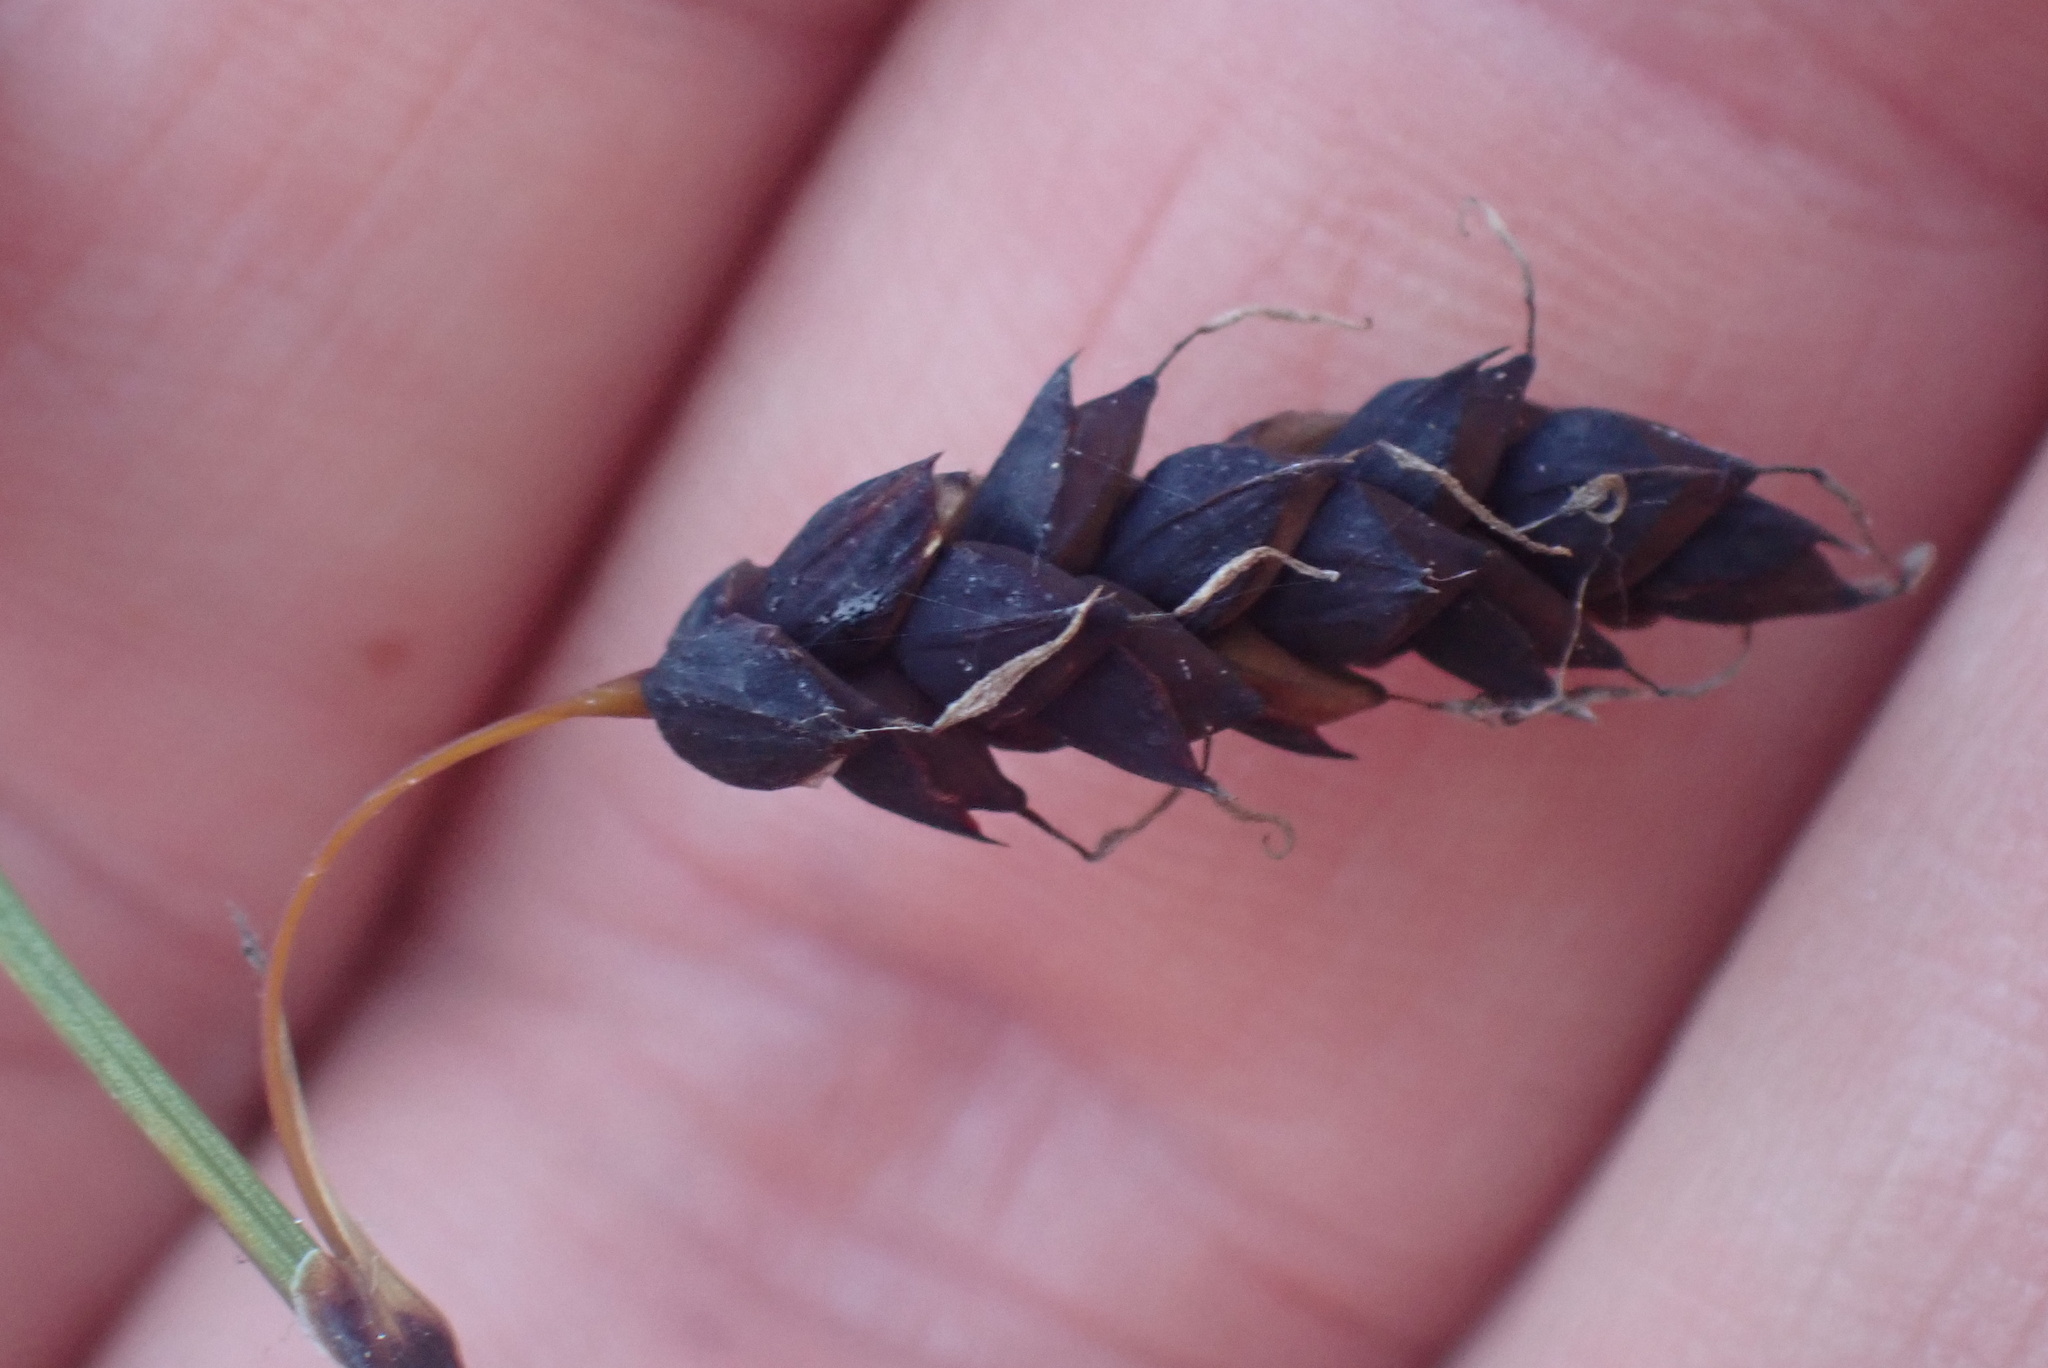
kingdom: Plantae
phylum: Tracheophyta
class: Liliopsida
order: Poales
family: Cyperaceae
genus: Carex
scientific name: Carex pluriflora
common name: Manyflower sedge
